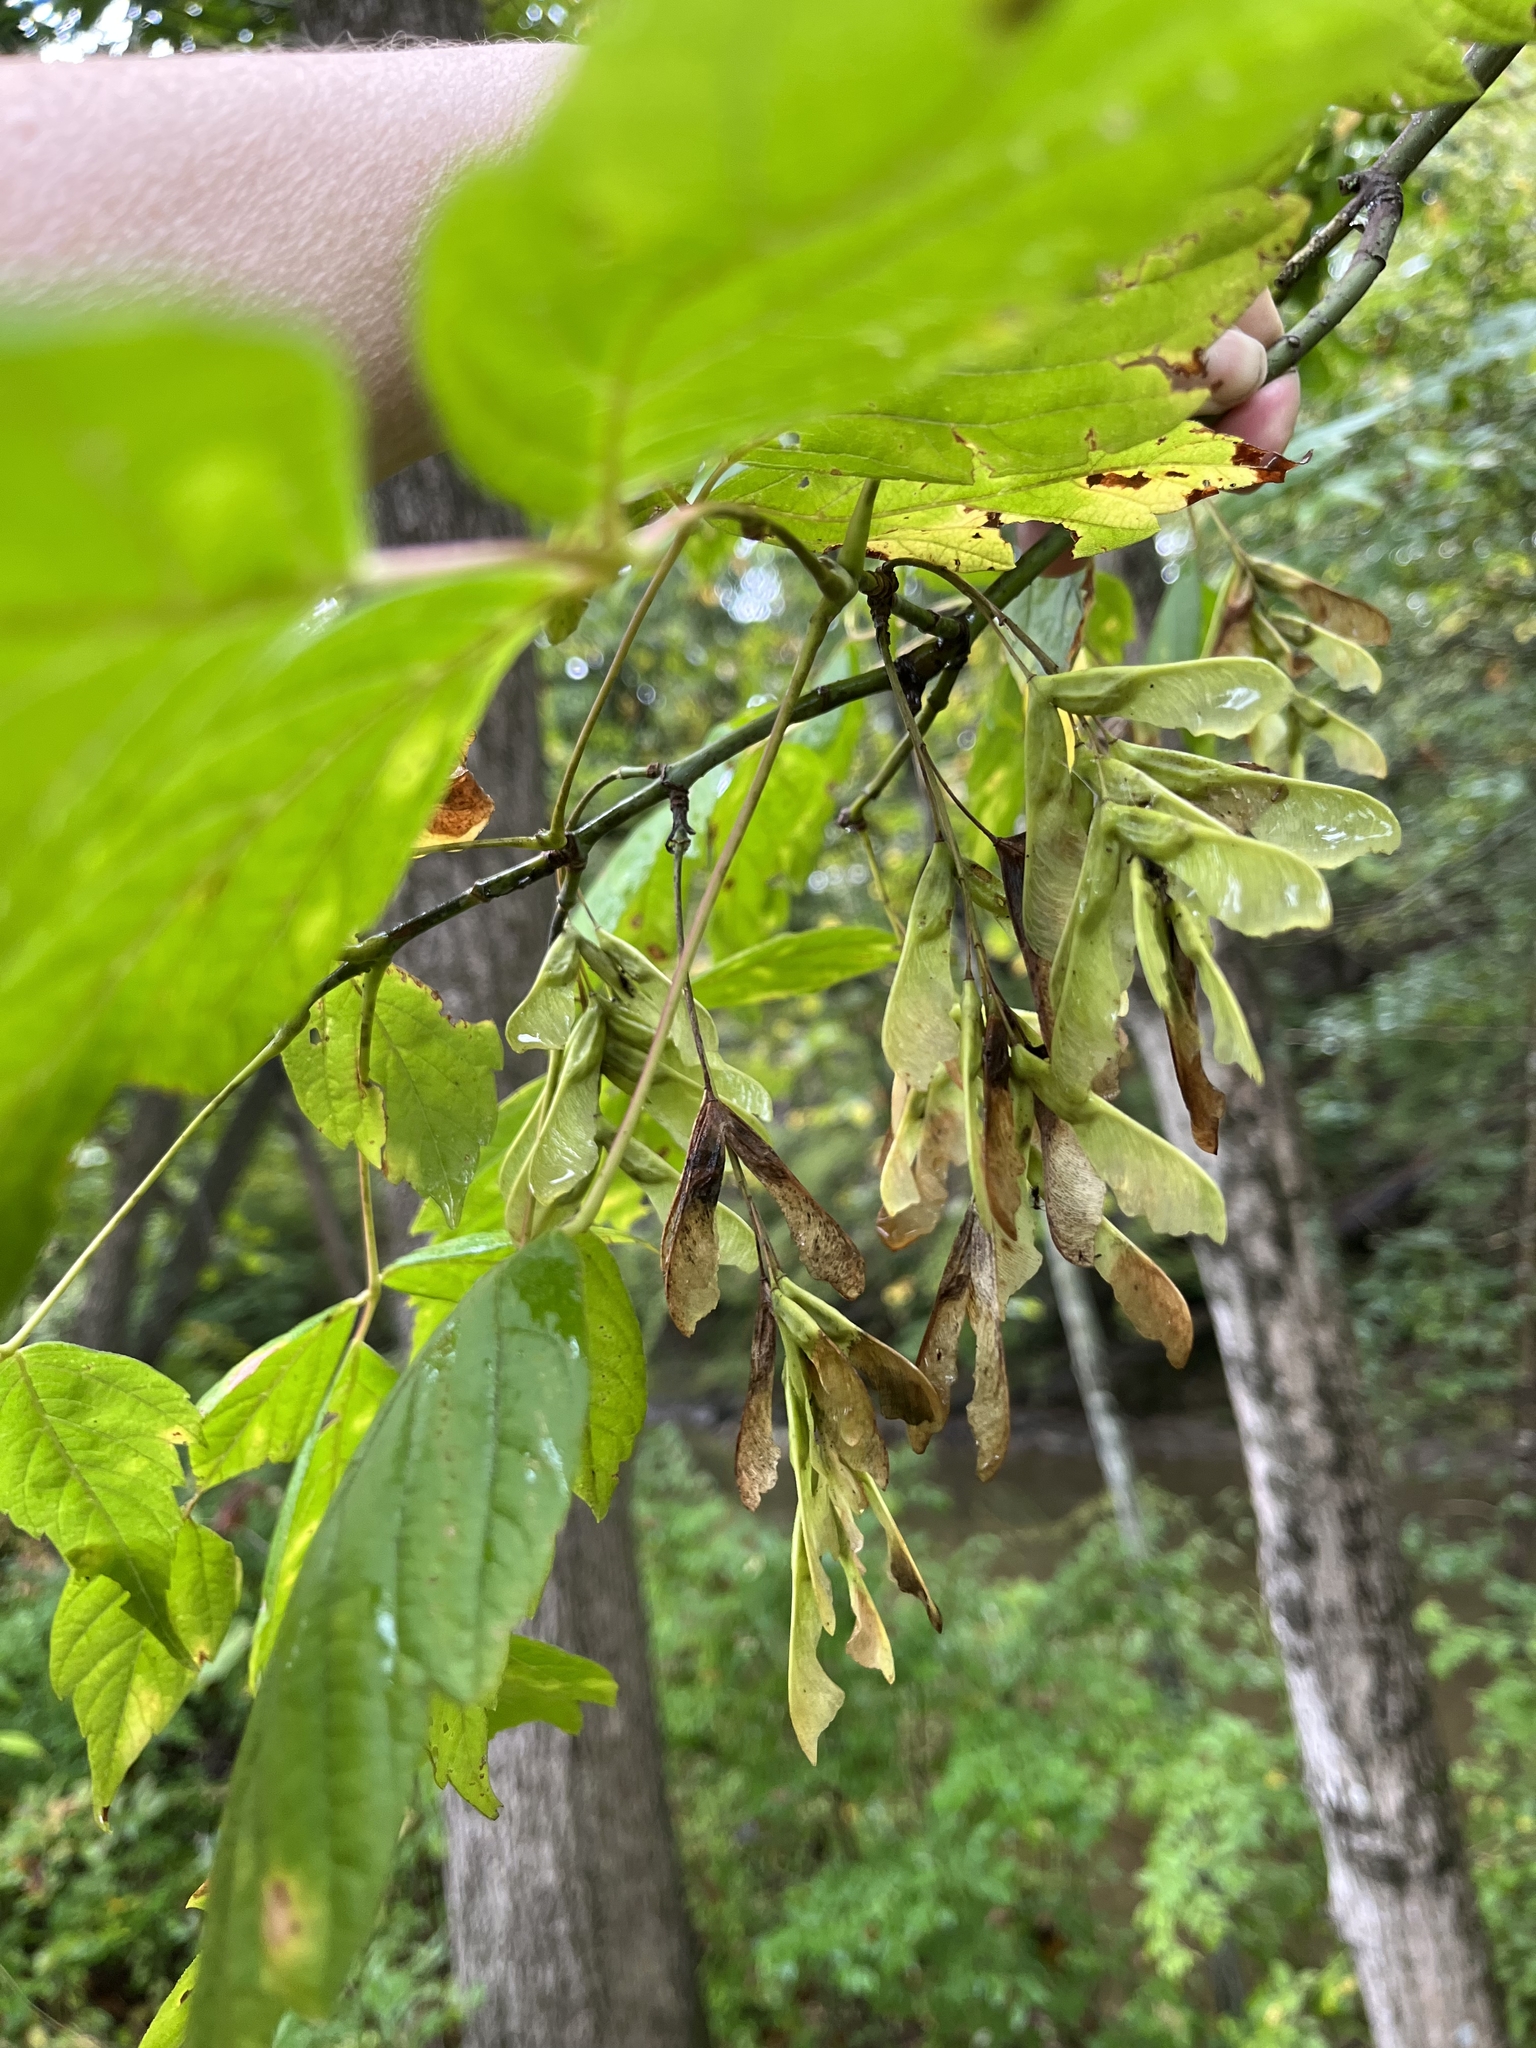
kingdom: Plantae
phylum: Tracheophyta
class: Magnoliopsida
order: Sapindales
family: Sapindaceae
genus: Acer
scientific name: Acer negundo
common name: Ashleaf maple
